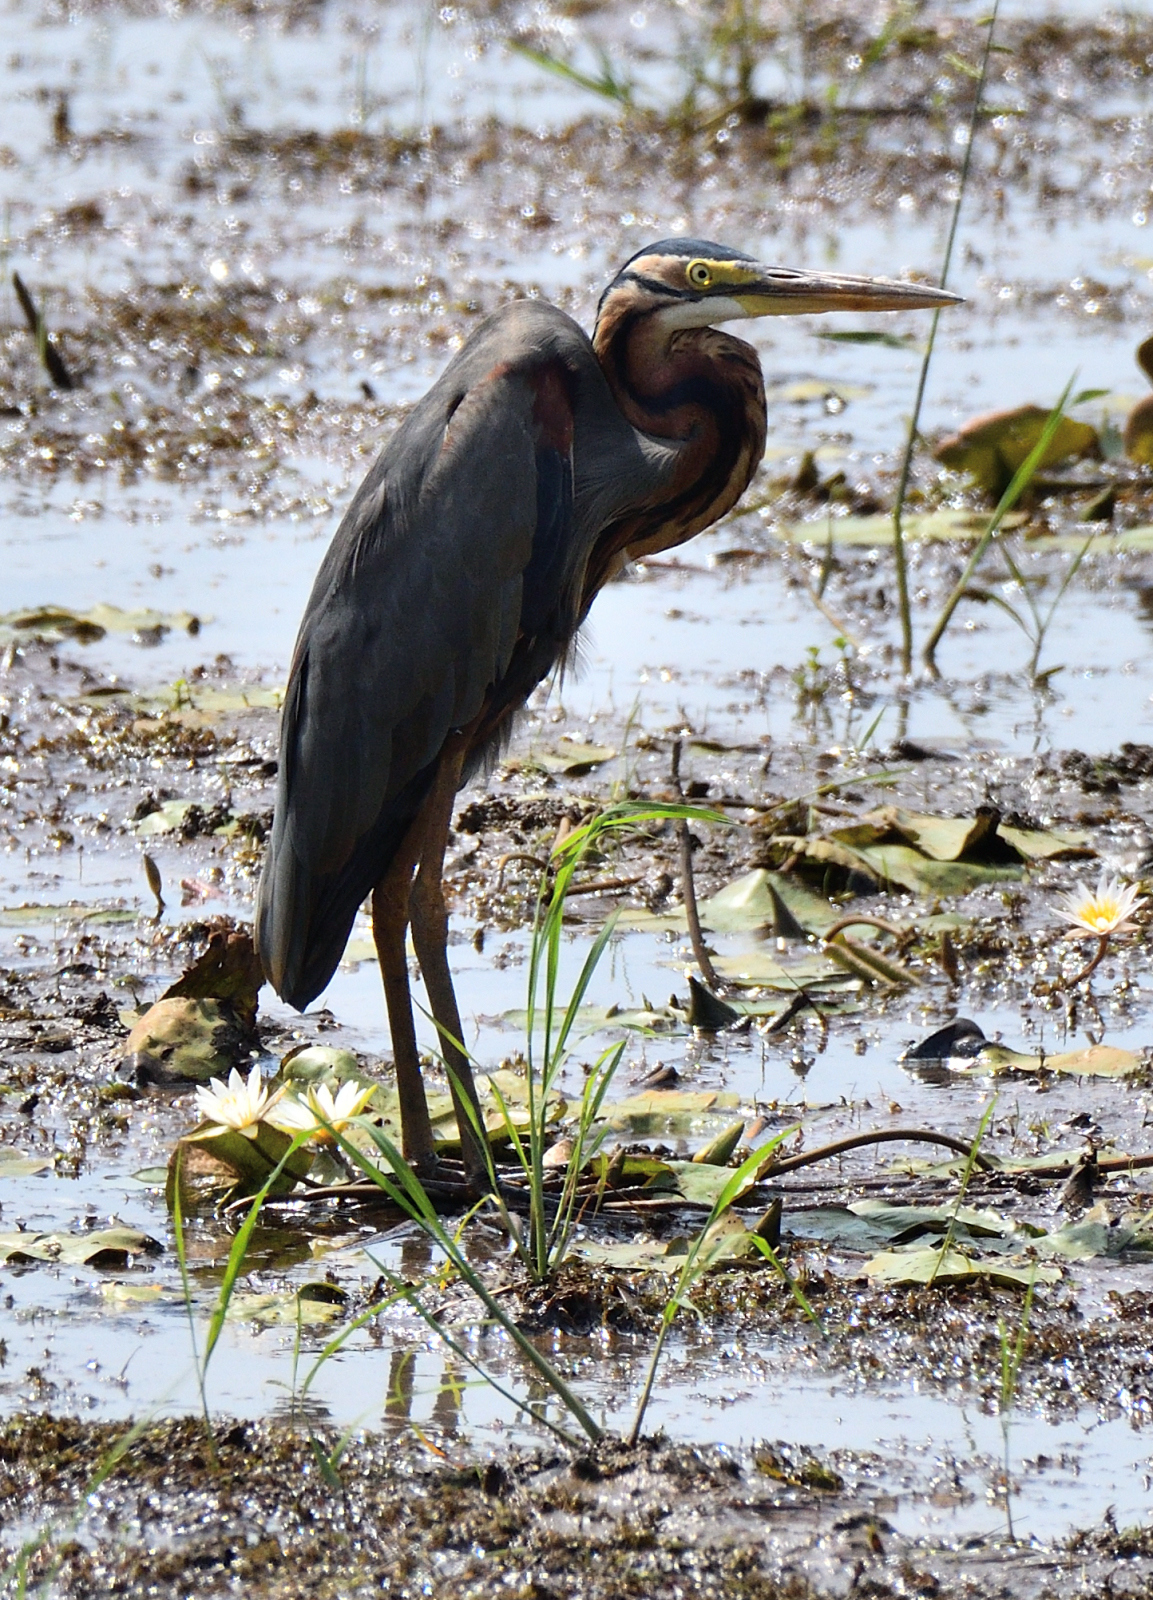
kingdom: Animalia
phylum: Chordata
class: Aves
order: Pelecaniformes
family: Ardeidae
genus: Ardea
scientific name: Ardea purpurea
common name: Purple heron
